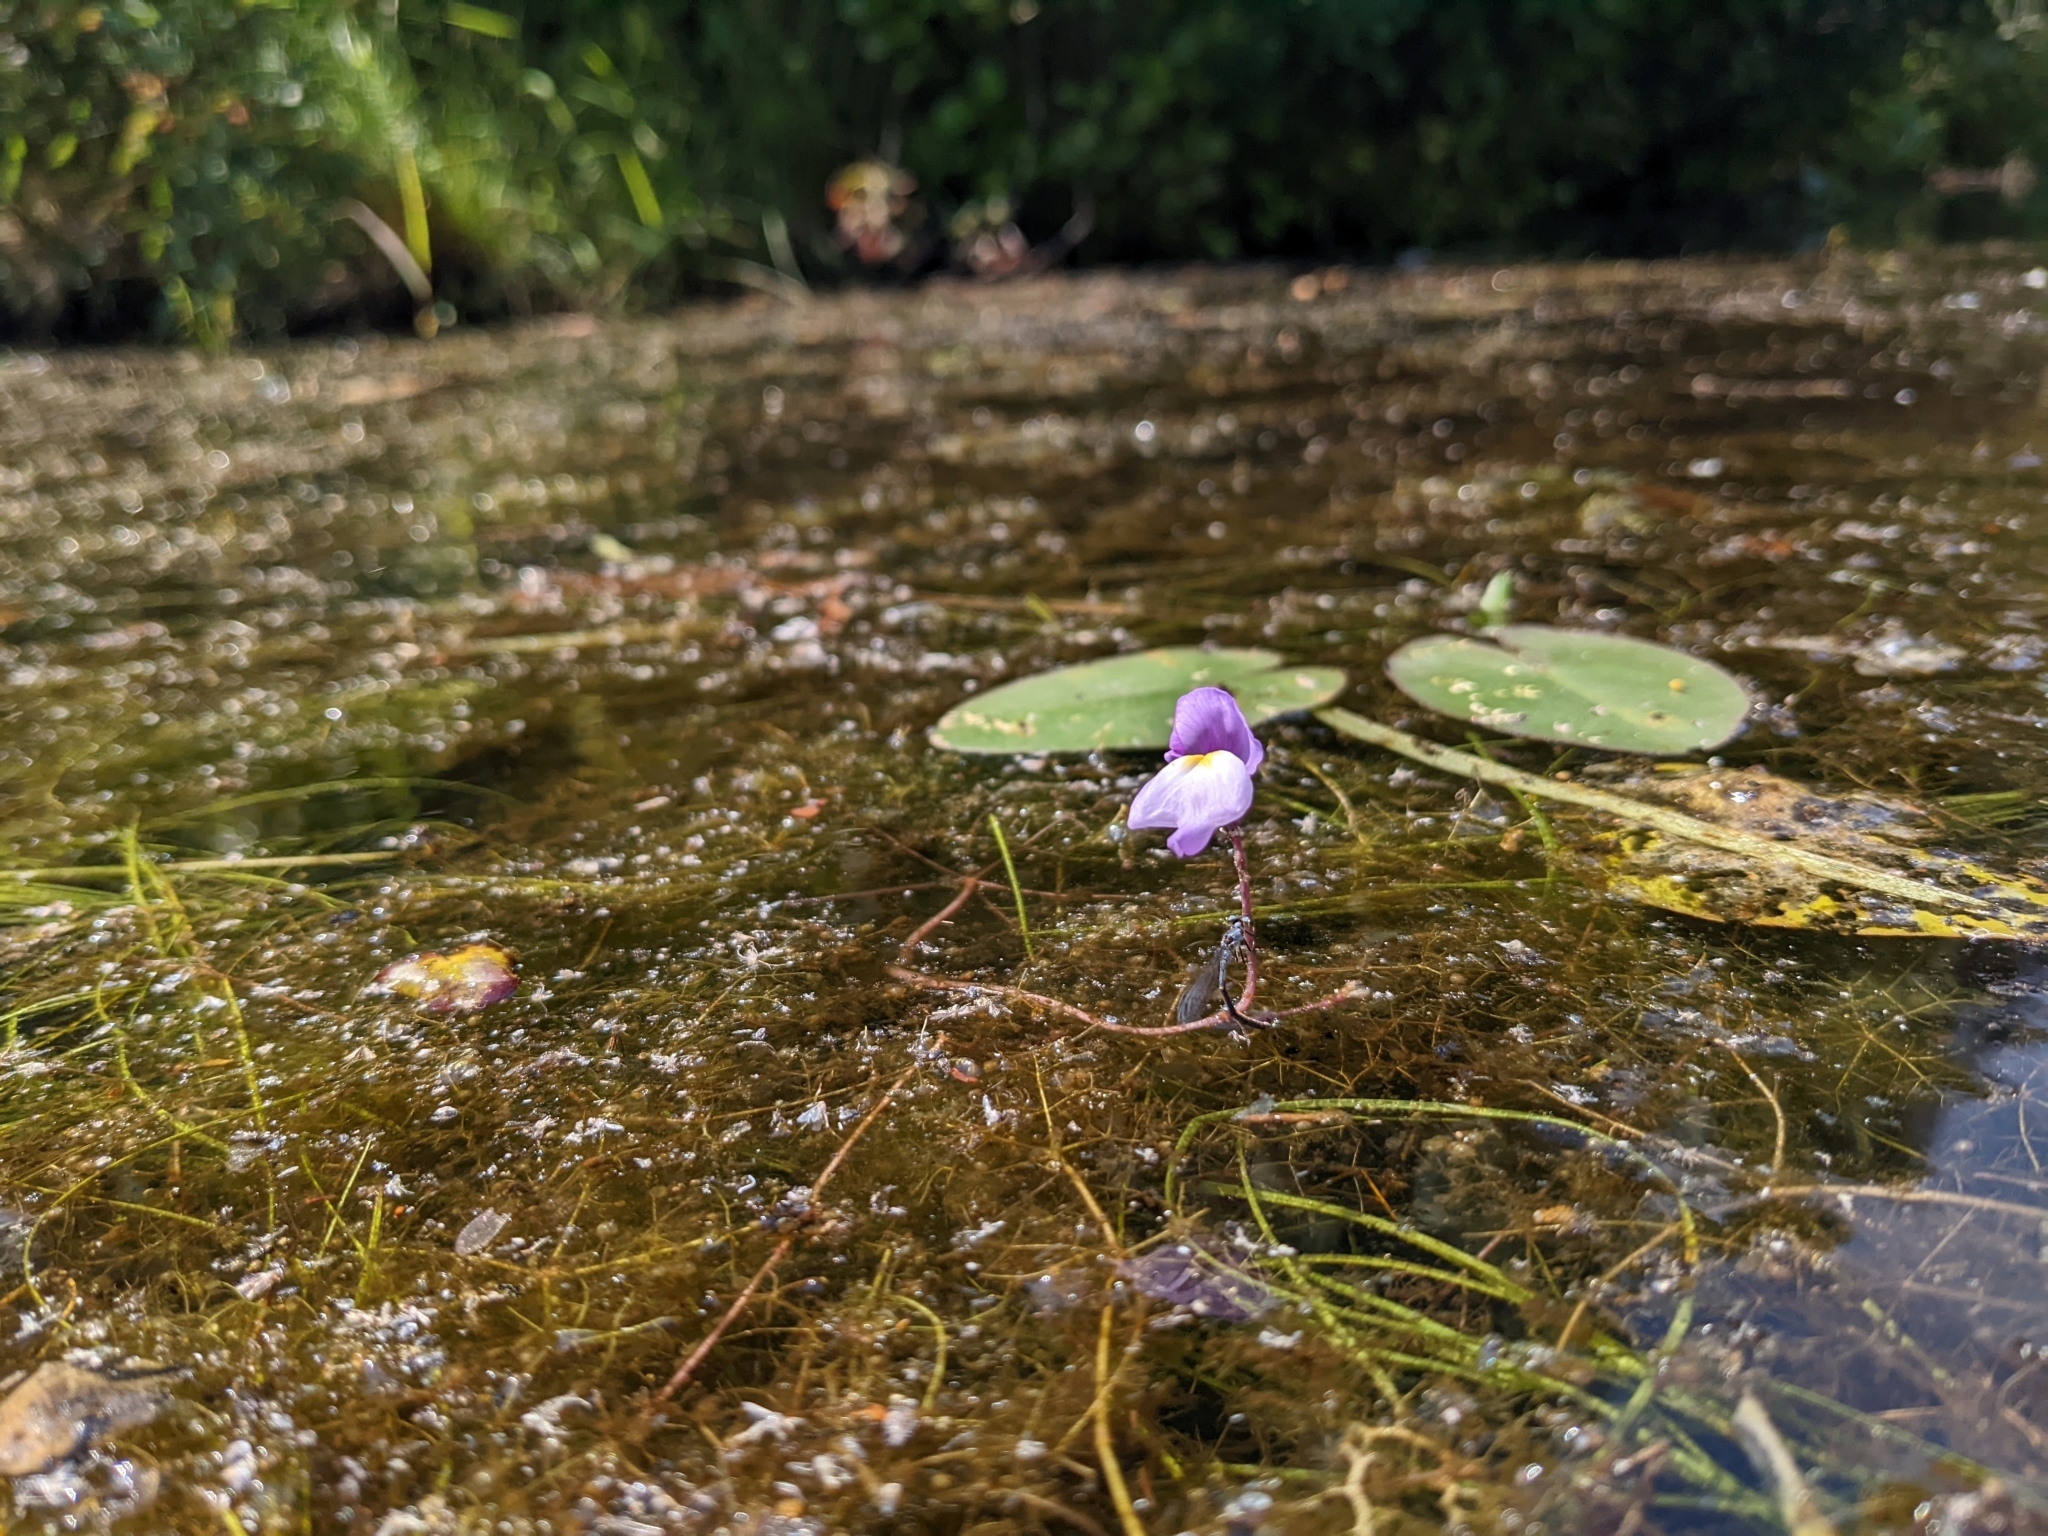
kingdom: Plantae
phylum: Tracheophyta
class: Magnoliopsida
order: Lamiales
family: Lentibulariaceae
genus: Utricularia
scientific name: Utricularia purpurea
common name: Eastern purple bladderwort
